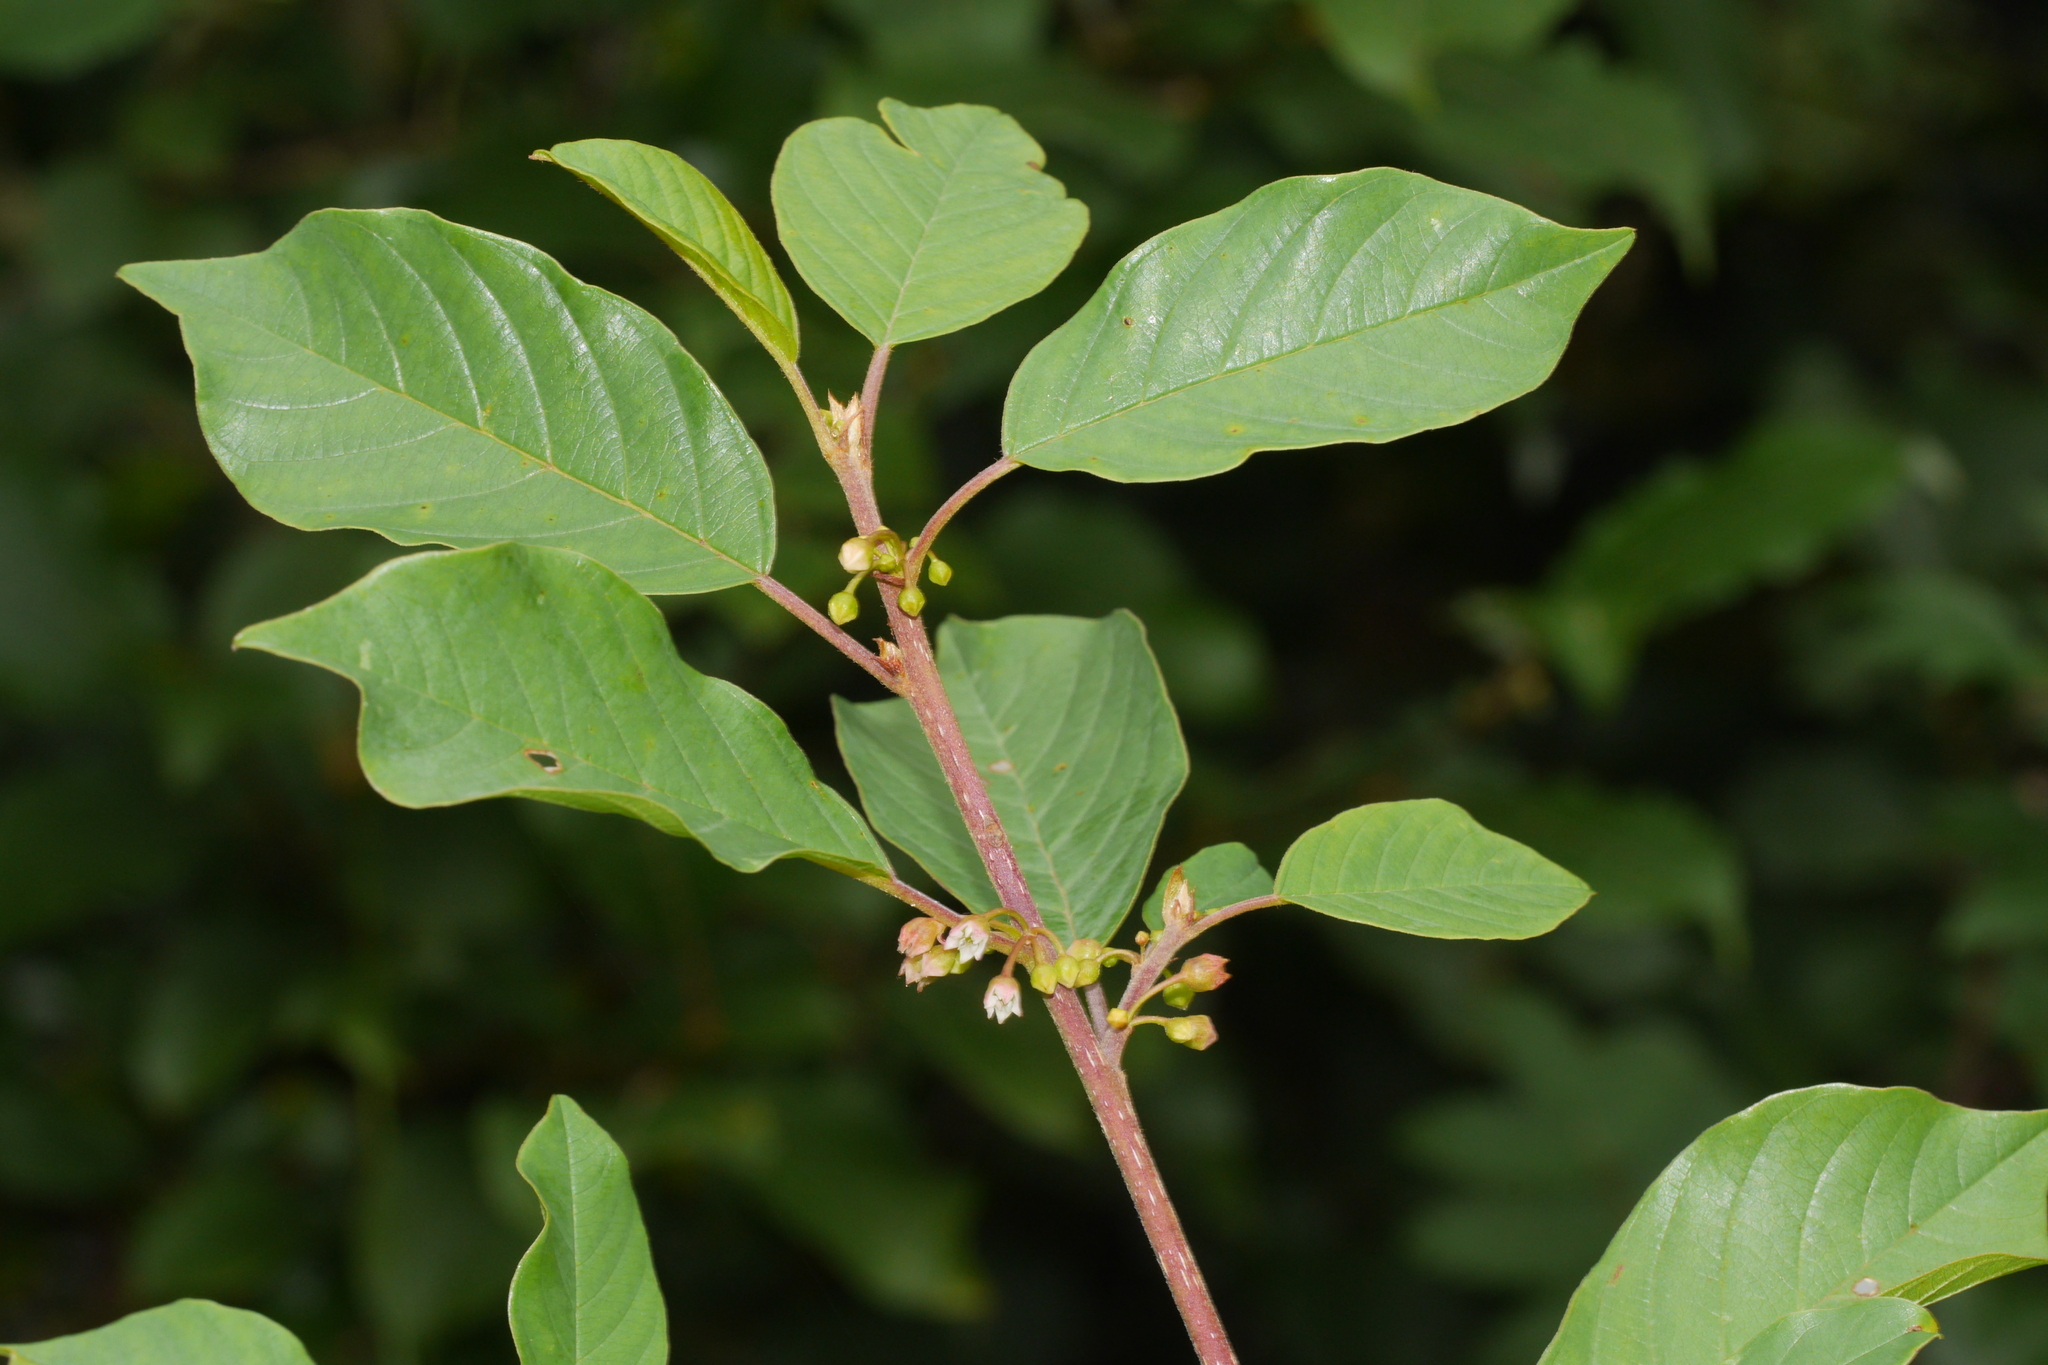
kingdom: Plantae
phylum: Tracheophyta
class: Magnoliopsida
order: Rosales
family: Rhamnaceae
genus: Frangula
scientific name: Frangula alnus
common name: Alder buckthorn
